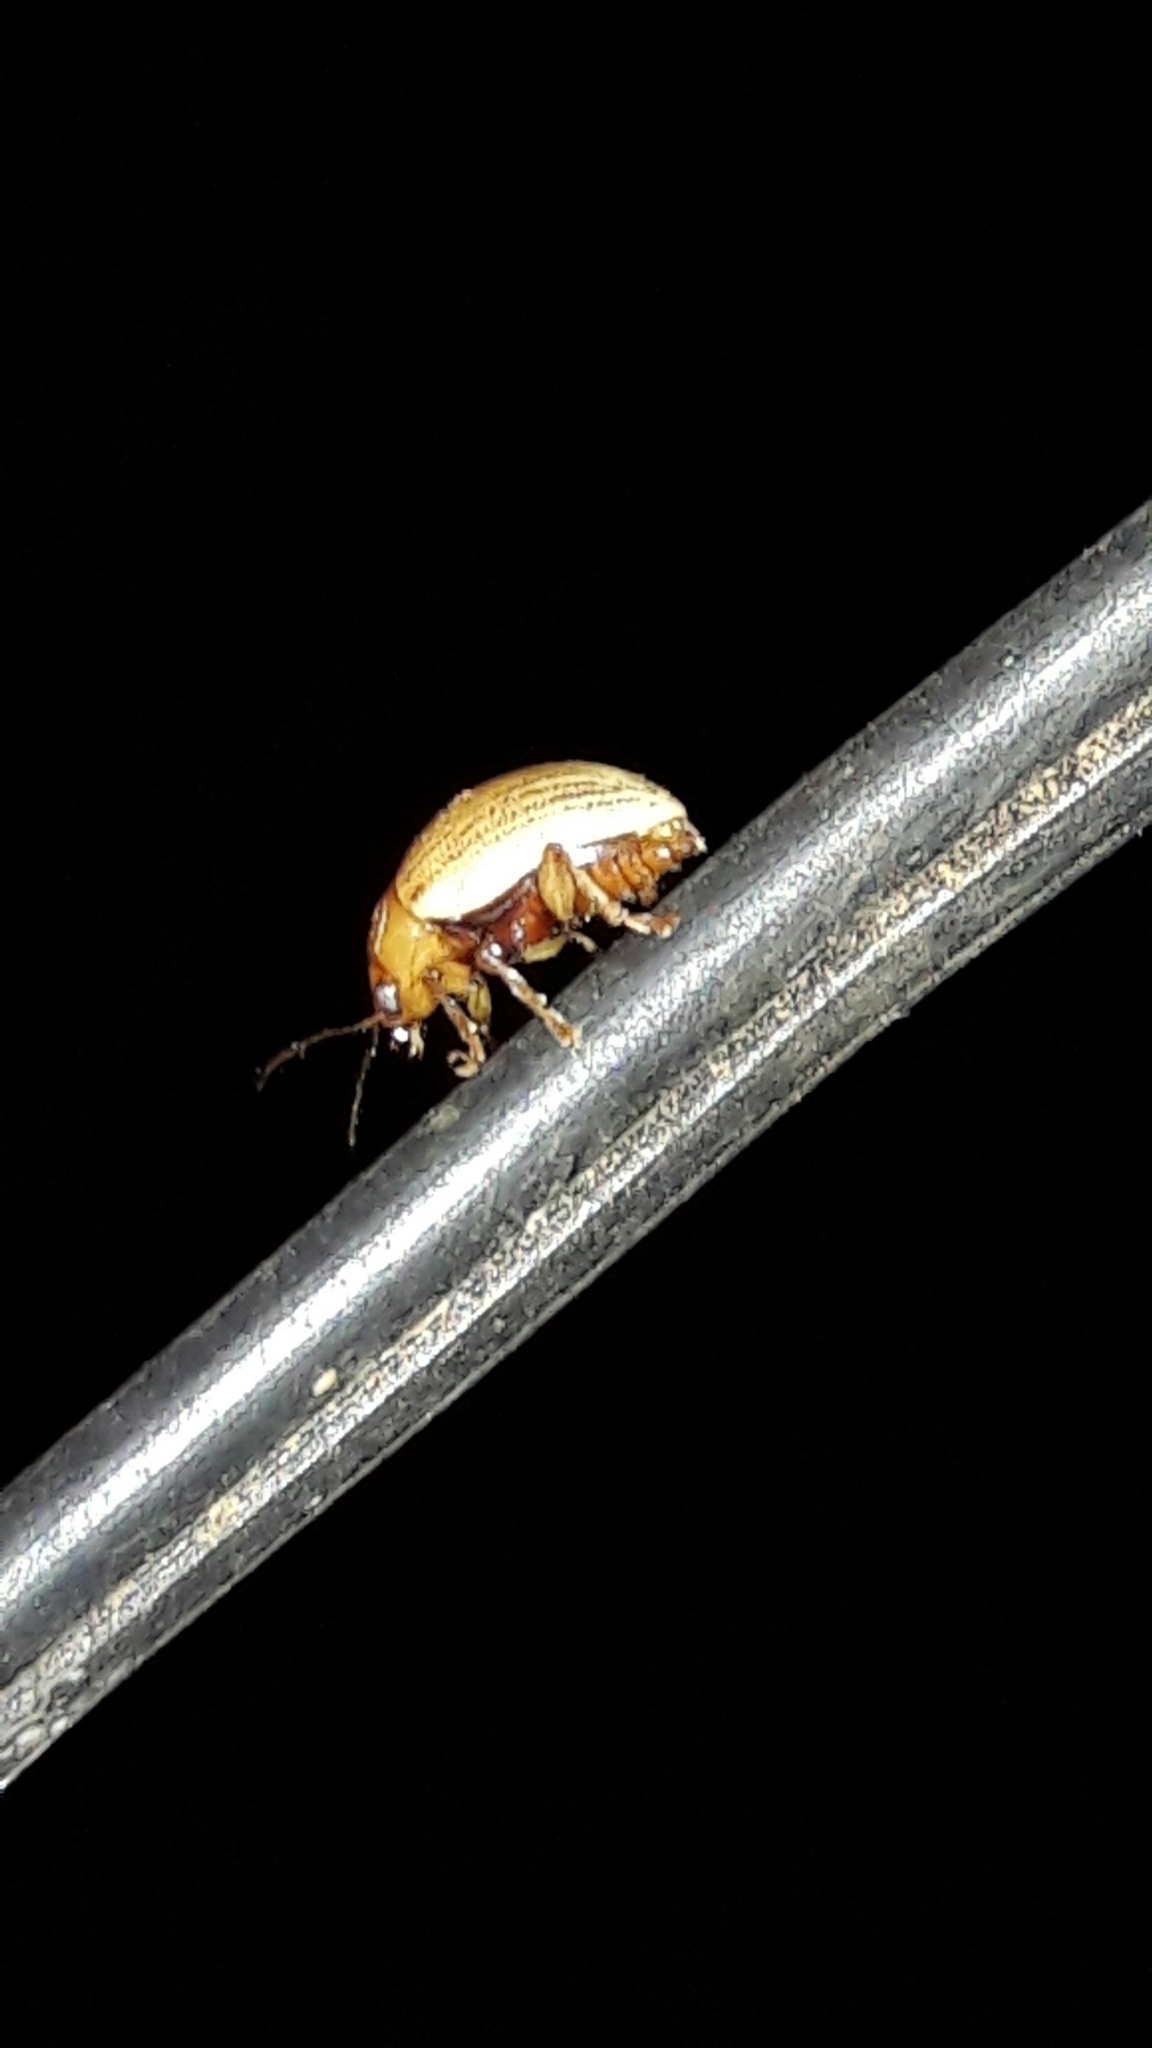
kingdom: Animalia
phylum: Arthropoda
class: Insecta
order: Coleoptera
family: Chrysomelidae
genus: Anisodera
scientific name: Anisodera ferruginea
